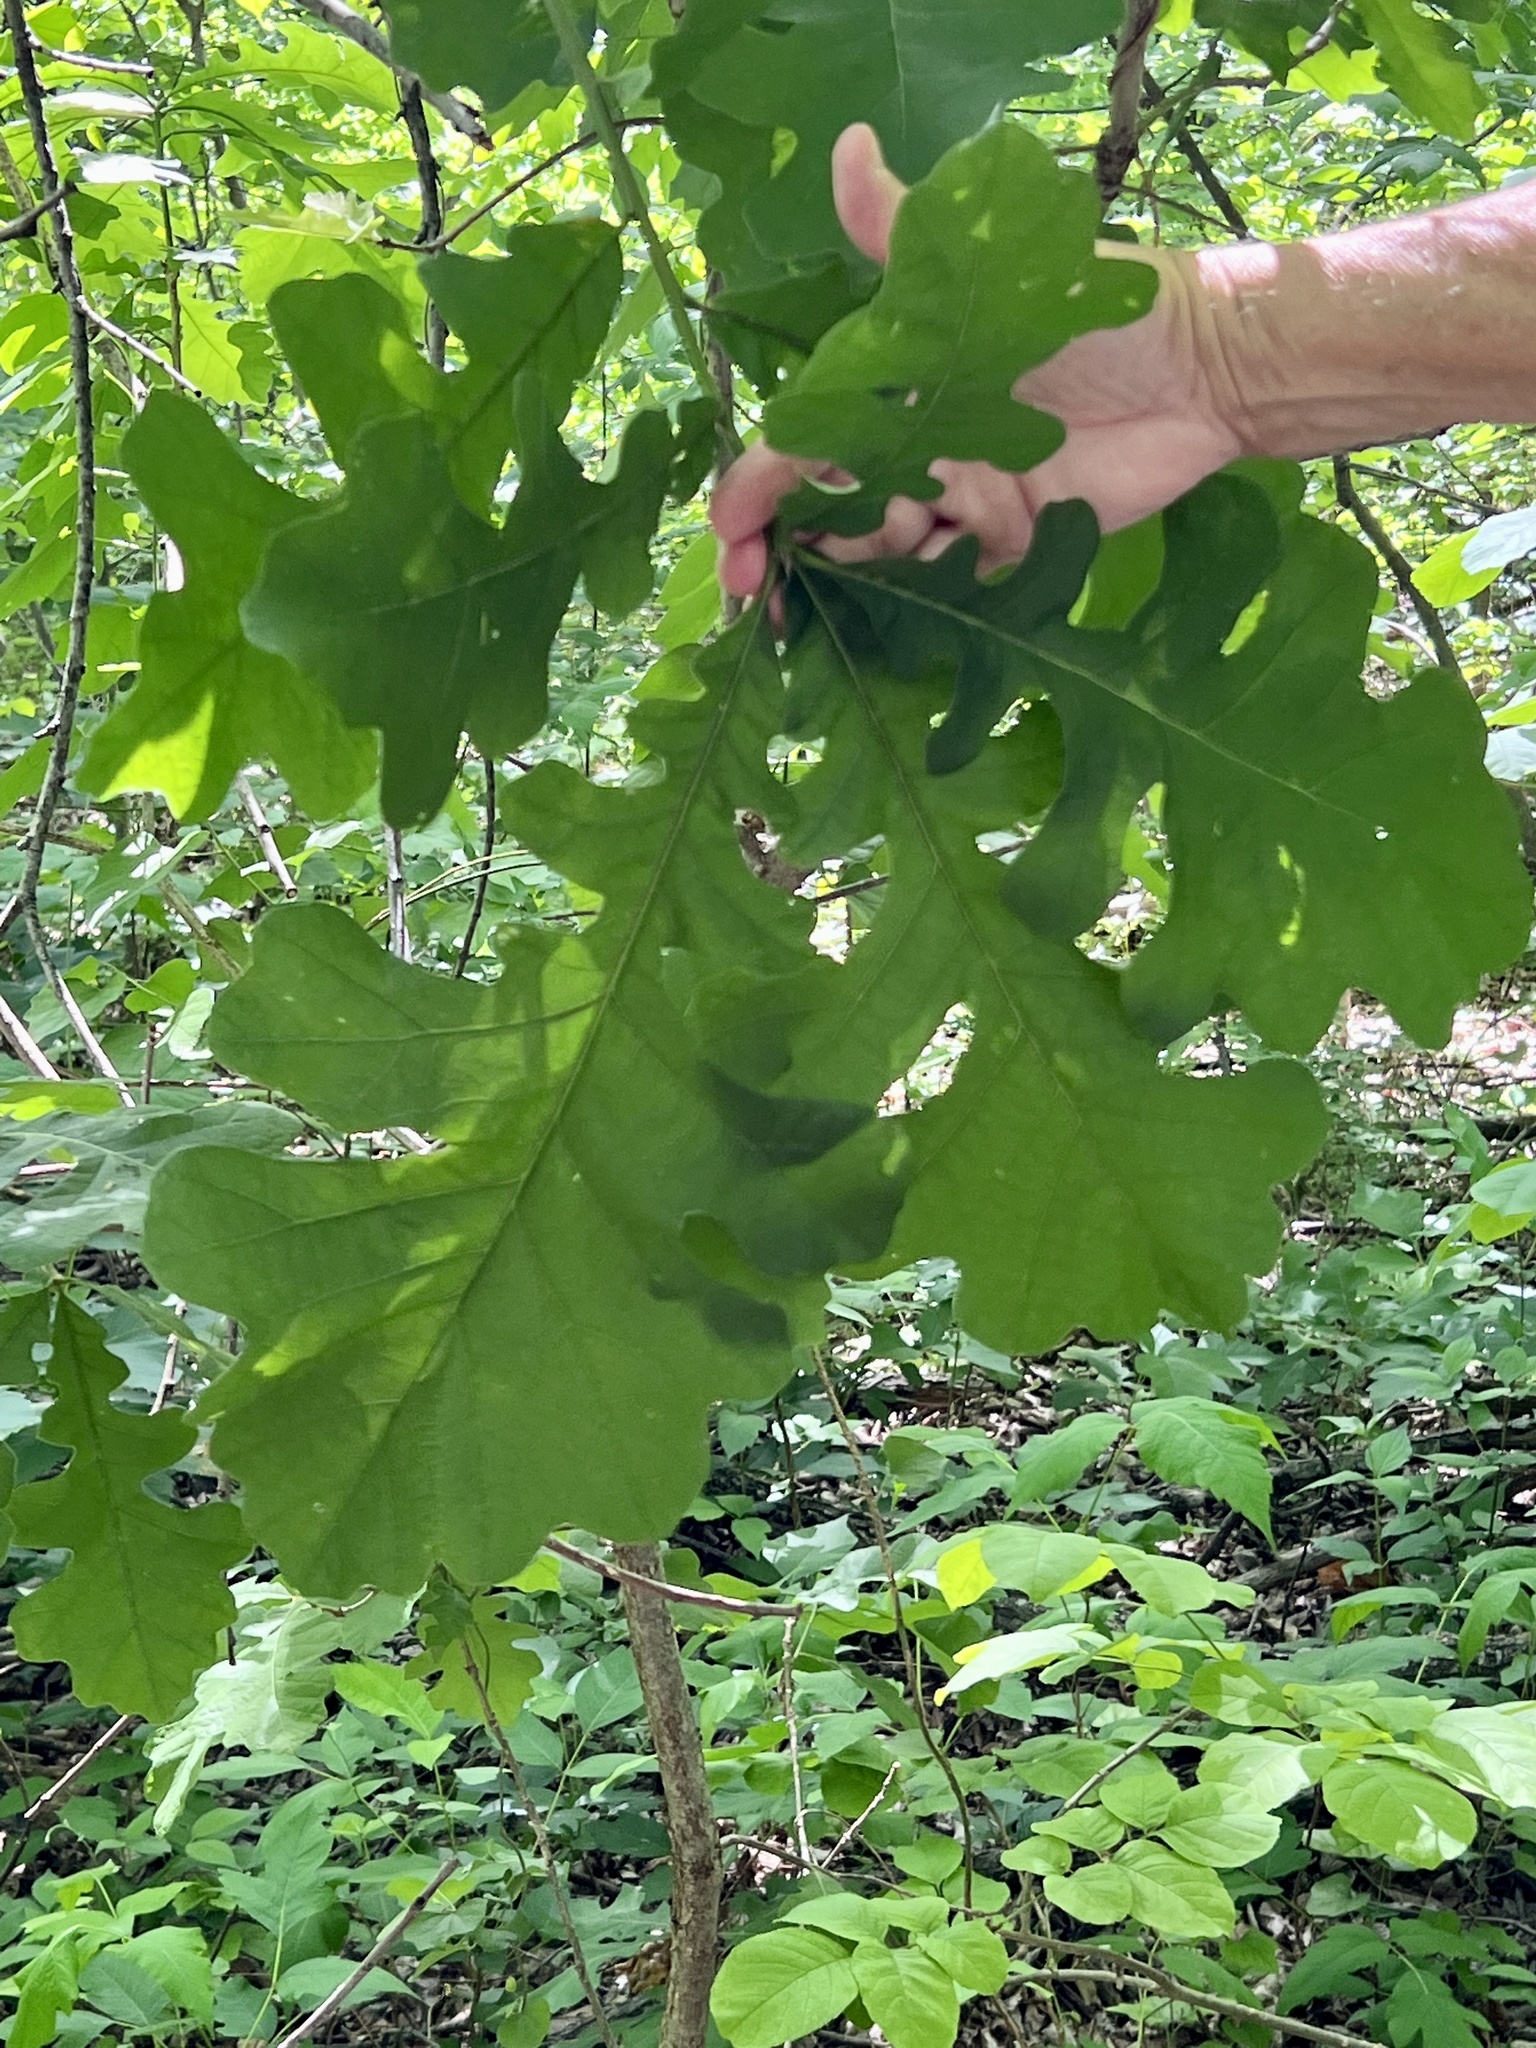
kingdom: Plantae
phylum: Tracheophyta
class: Magnoliopsida
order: Fagales
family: Fagaceae
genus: Quercus
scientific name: Quercus macrocarpa
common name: Bur oak
